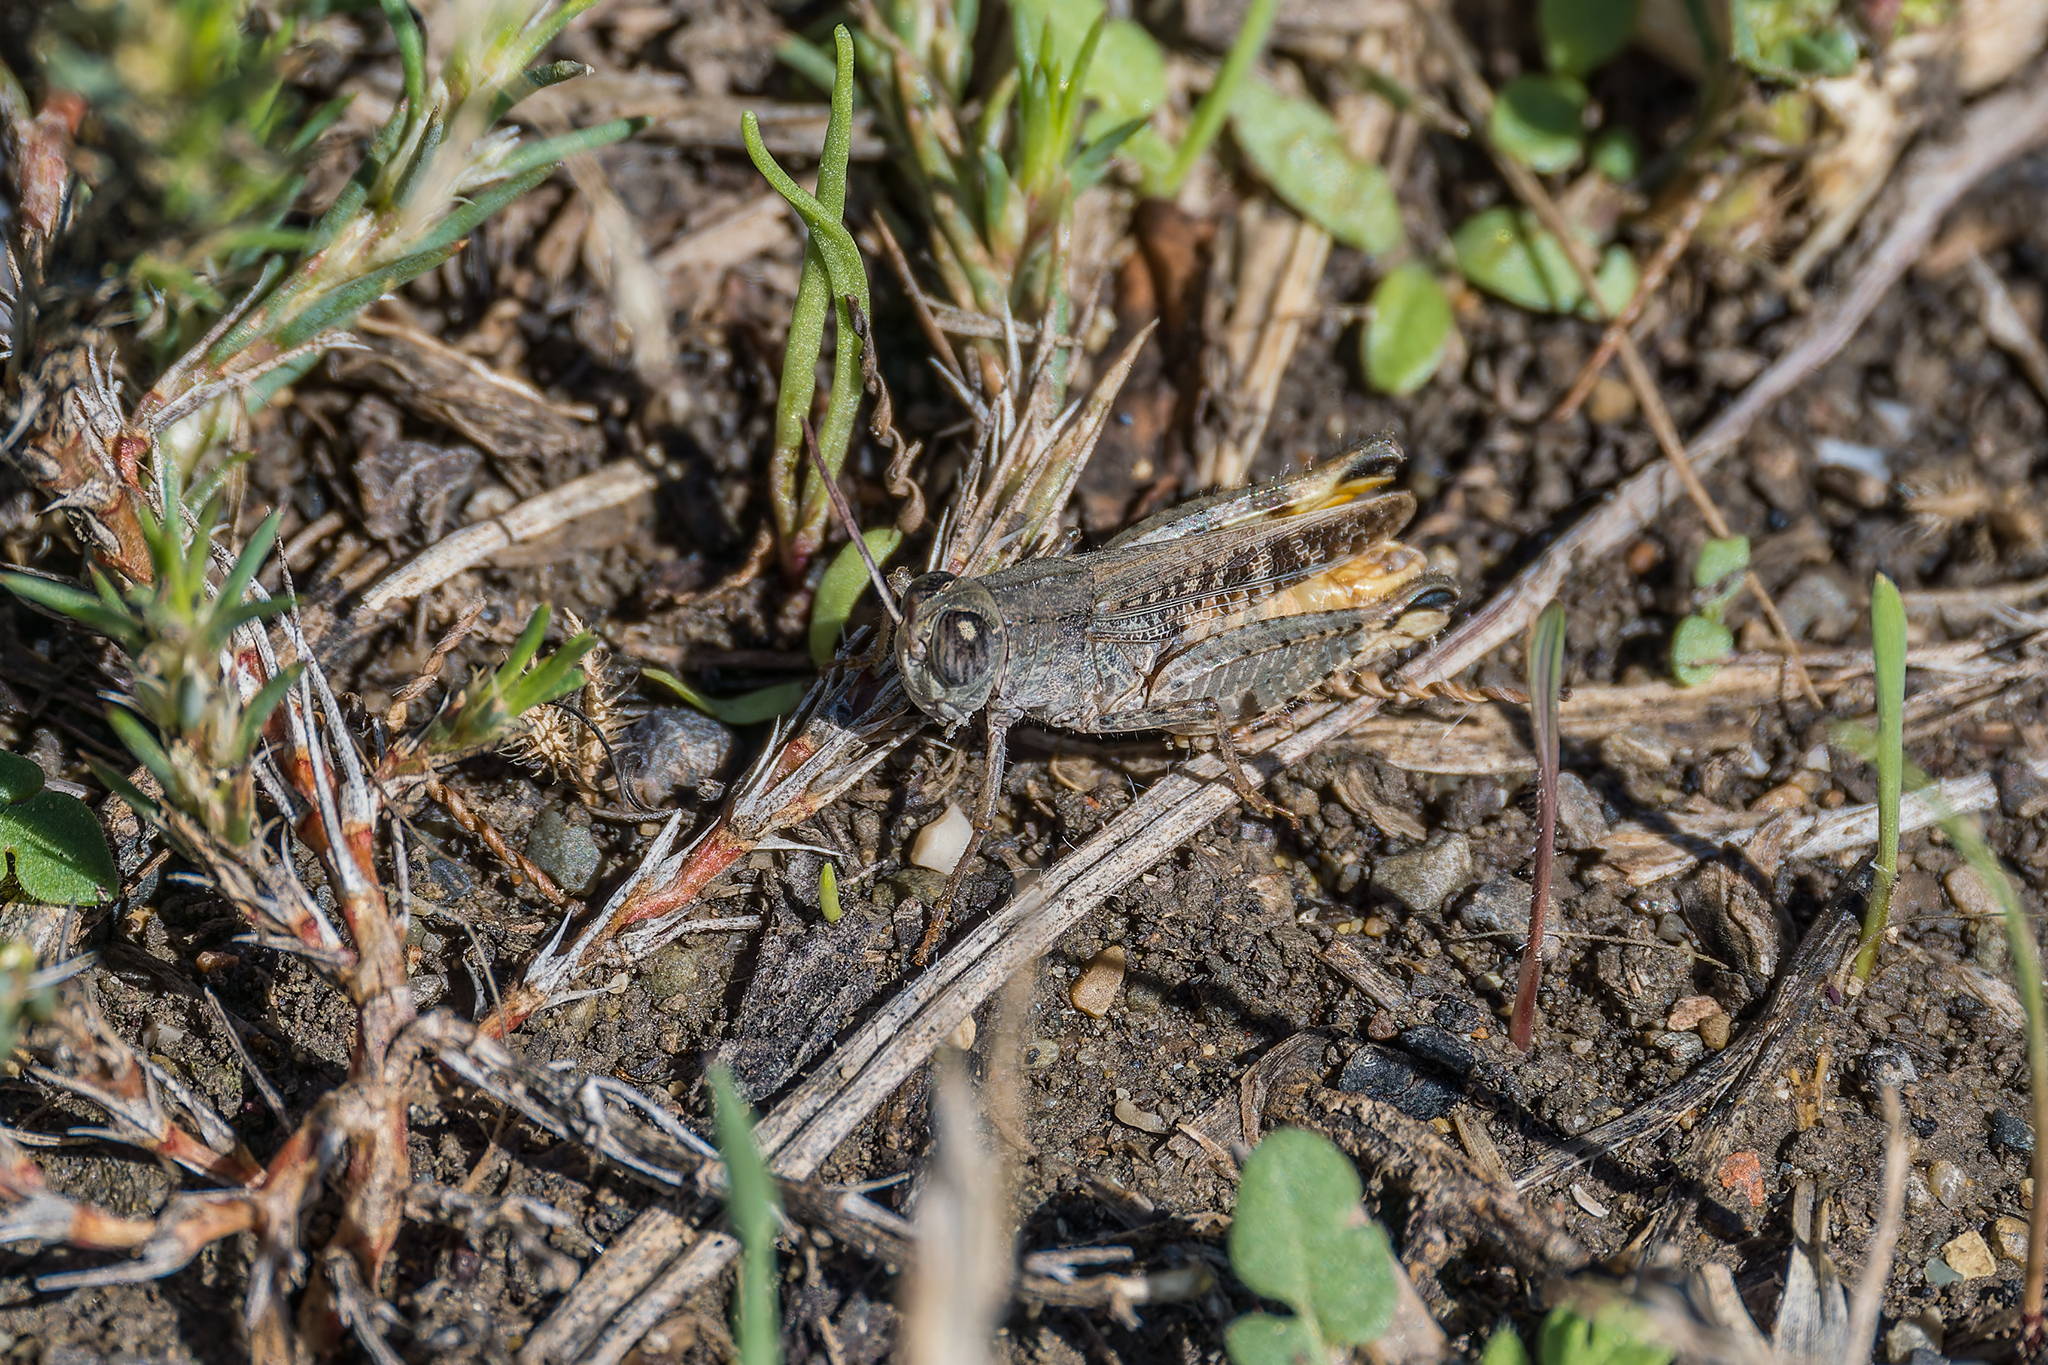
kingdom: Animalia
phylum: Arthropoda
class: Insecta
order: Orthoptera
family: Acrididae
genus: Calliptamus
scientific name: Calliptamus tenuicercis
